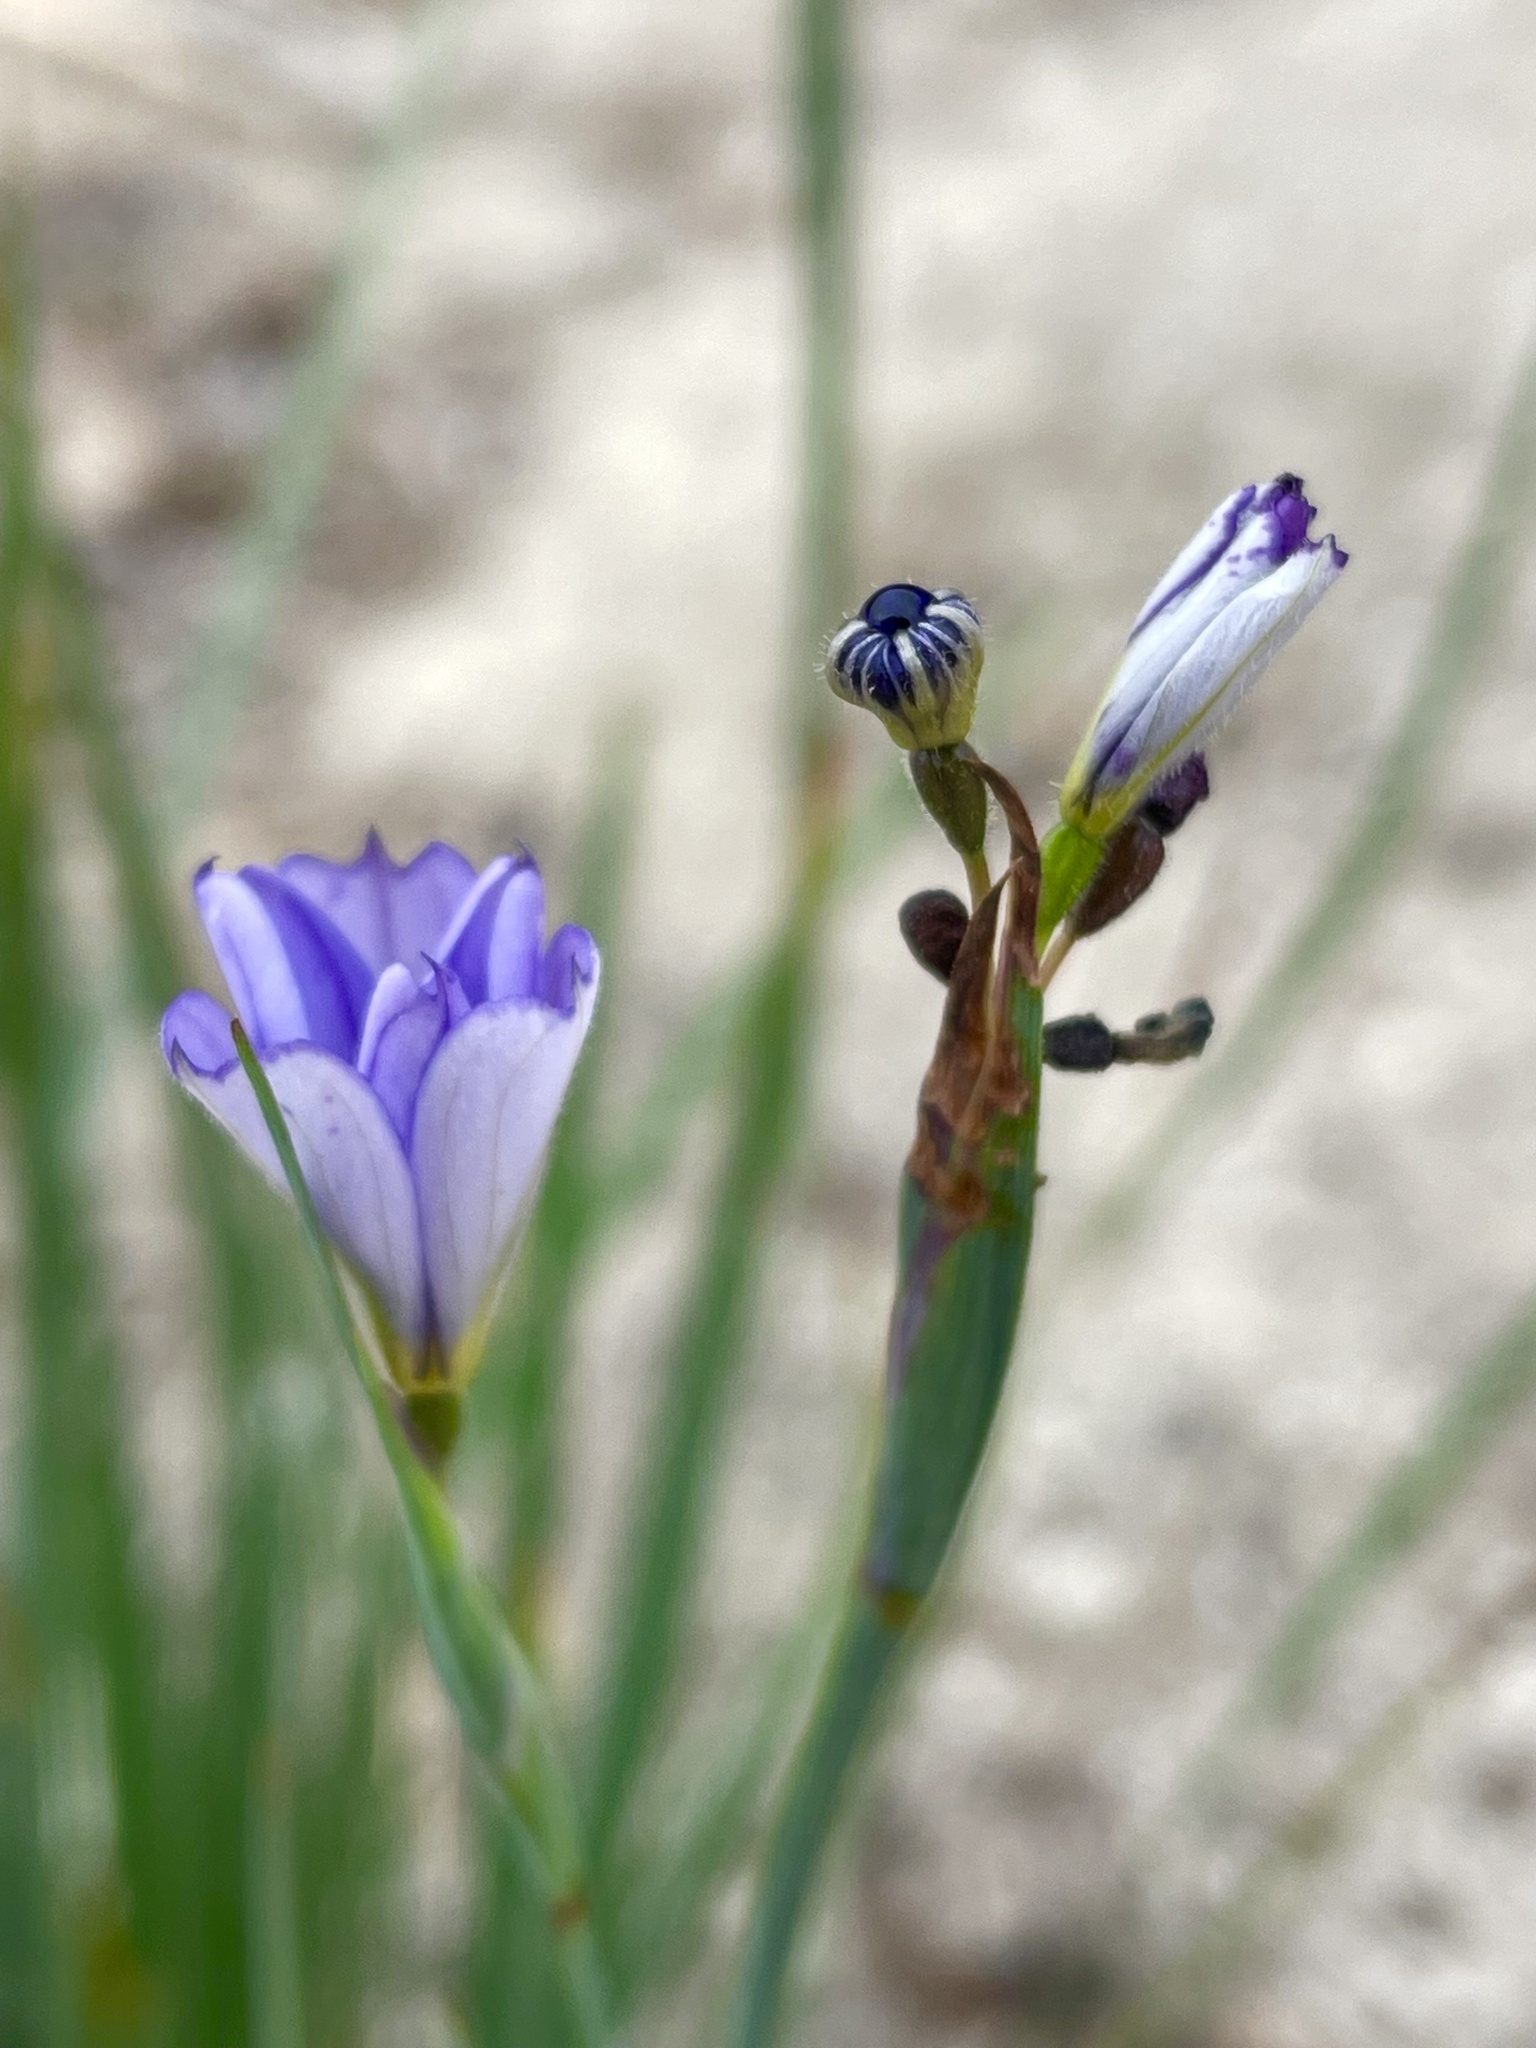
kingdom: Plantae
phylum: Tracheophyta
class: Liliopsida
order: Asparagales
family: Iridaceae
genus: Sisyrinchium
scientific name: Sisyrinchium bellum
